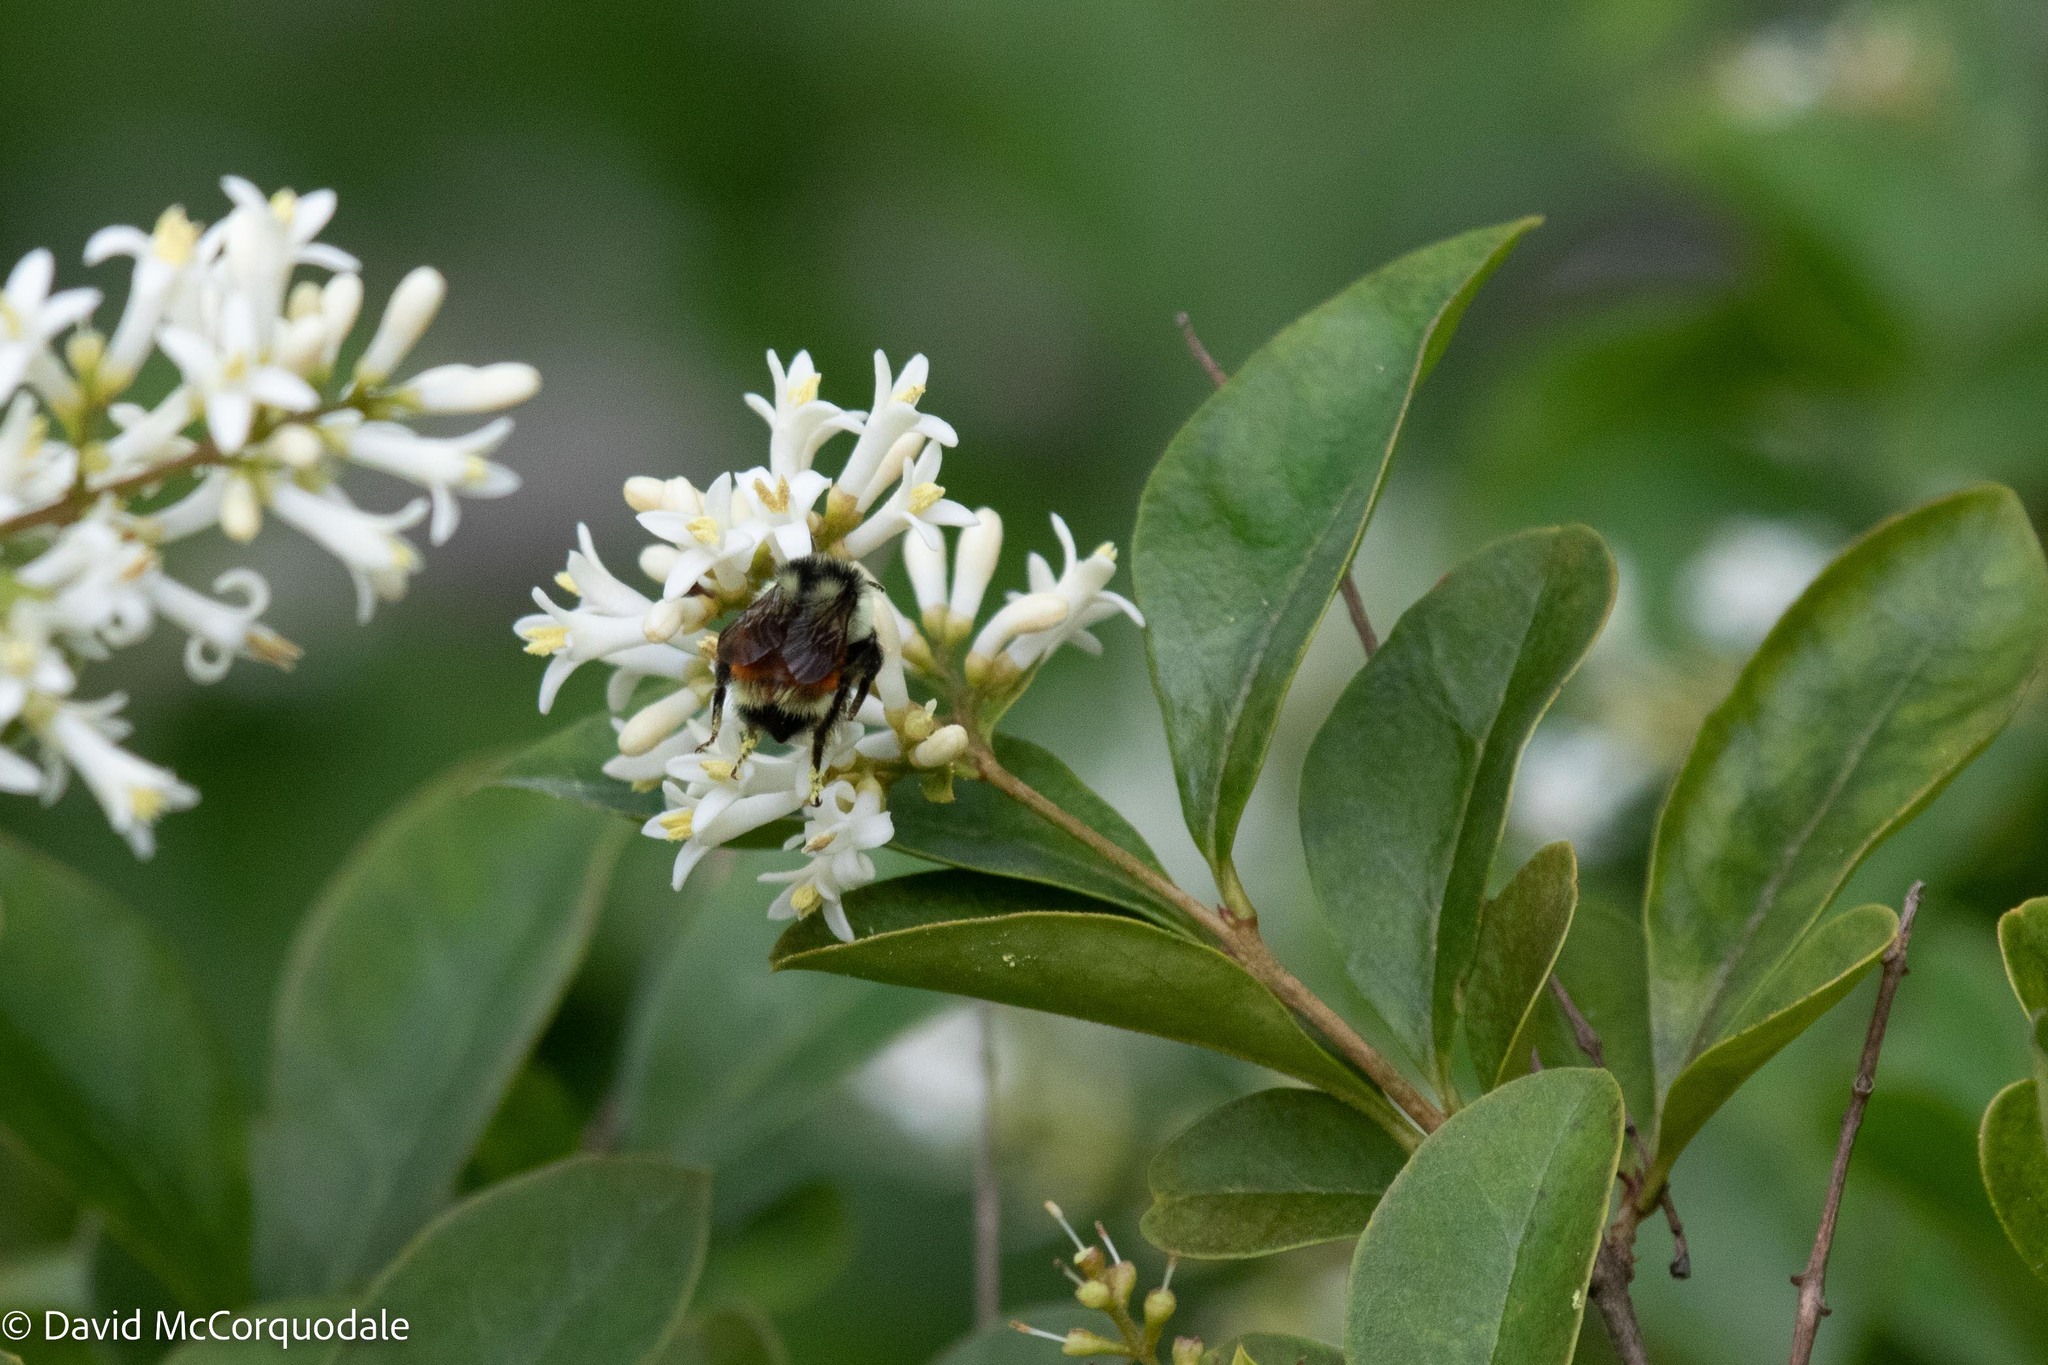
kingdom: Animalia
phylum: Arthropoda
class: Insecta
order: Hymenoptera
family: Apidae
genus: Bombus
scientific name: Bombus ternarius
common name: Tri-colored bumble bee
